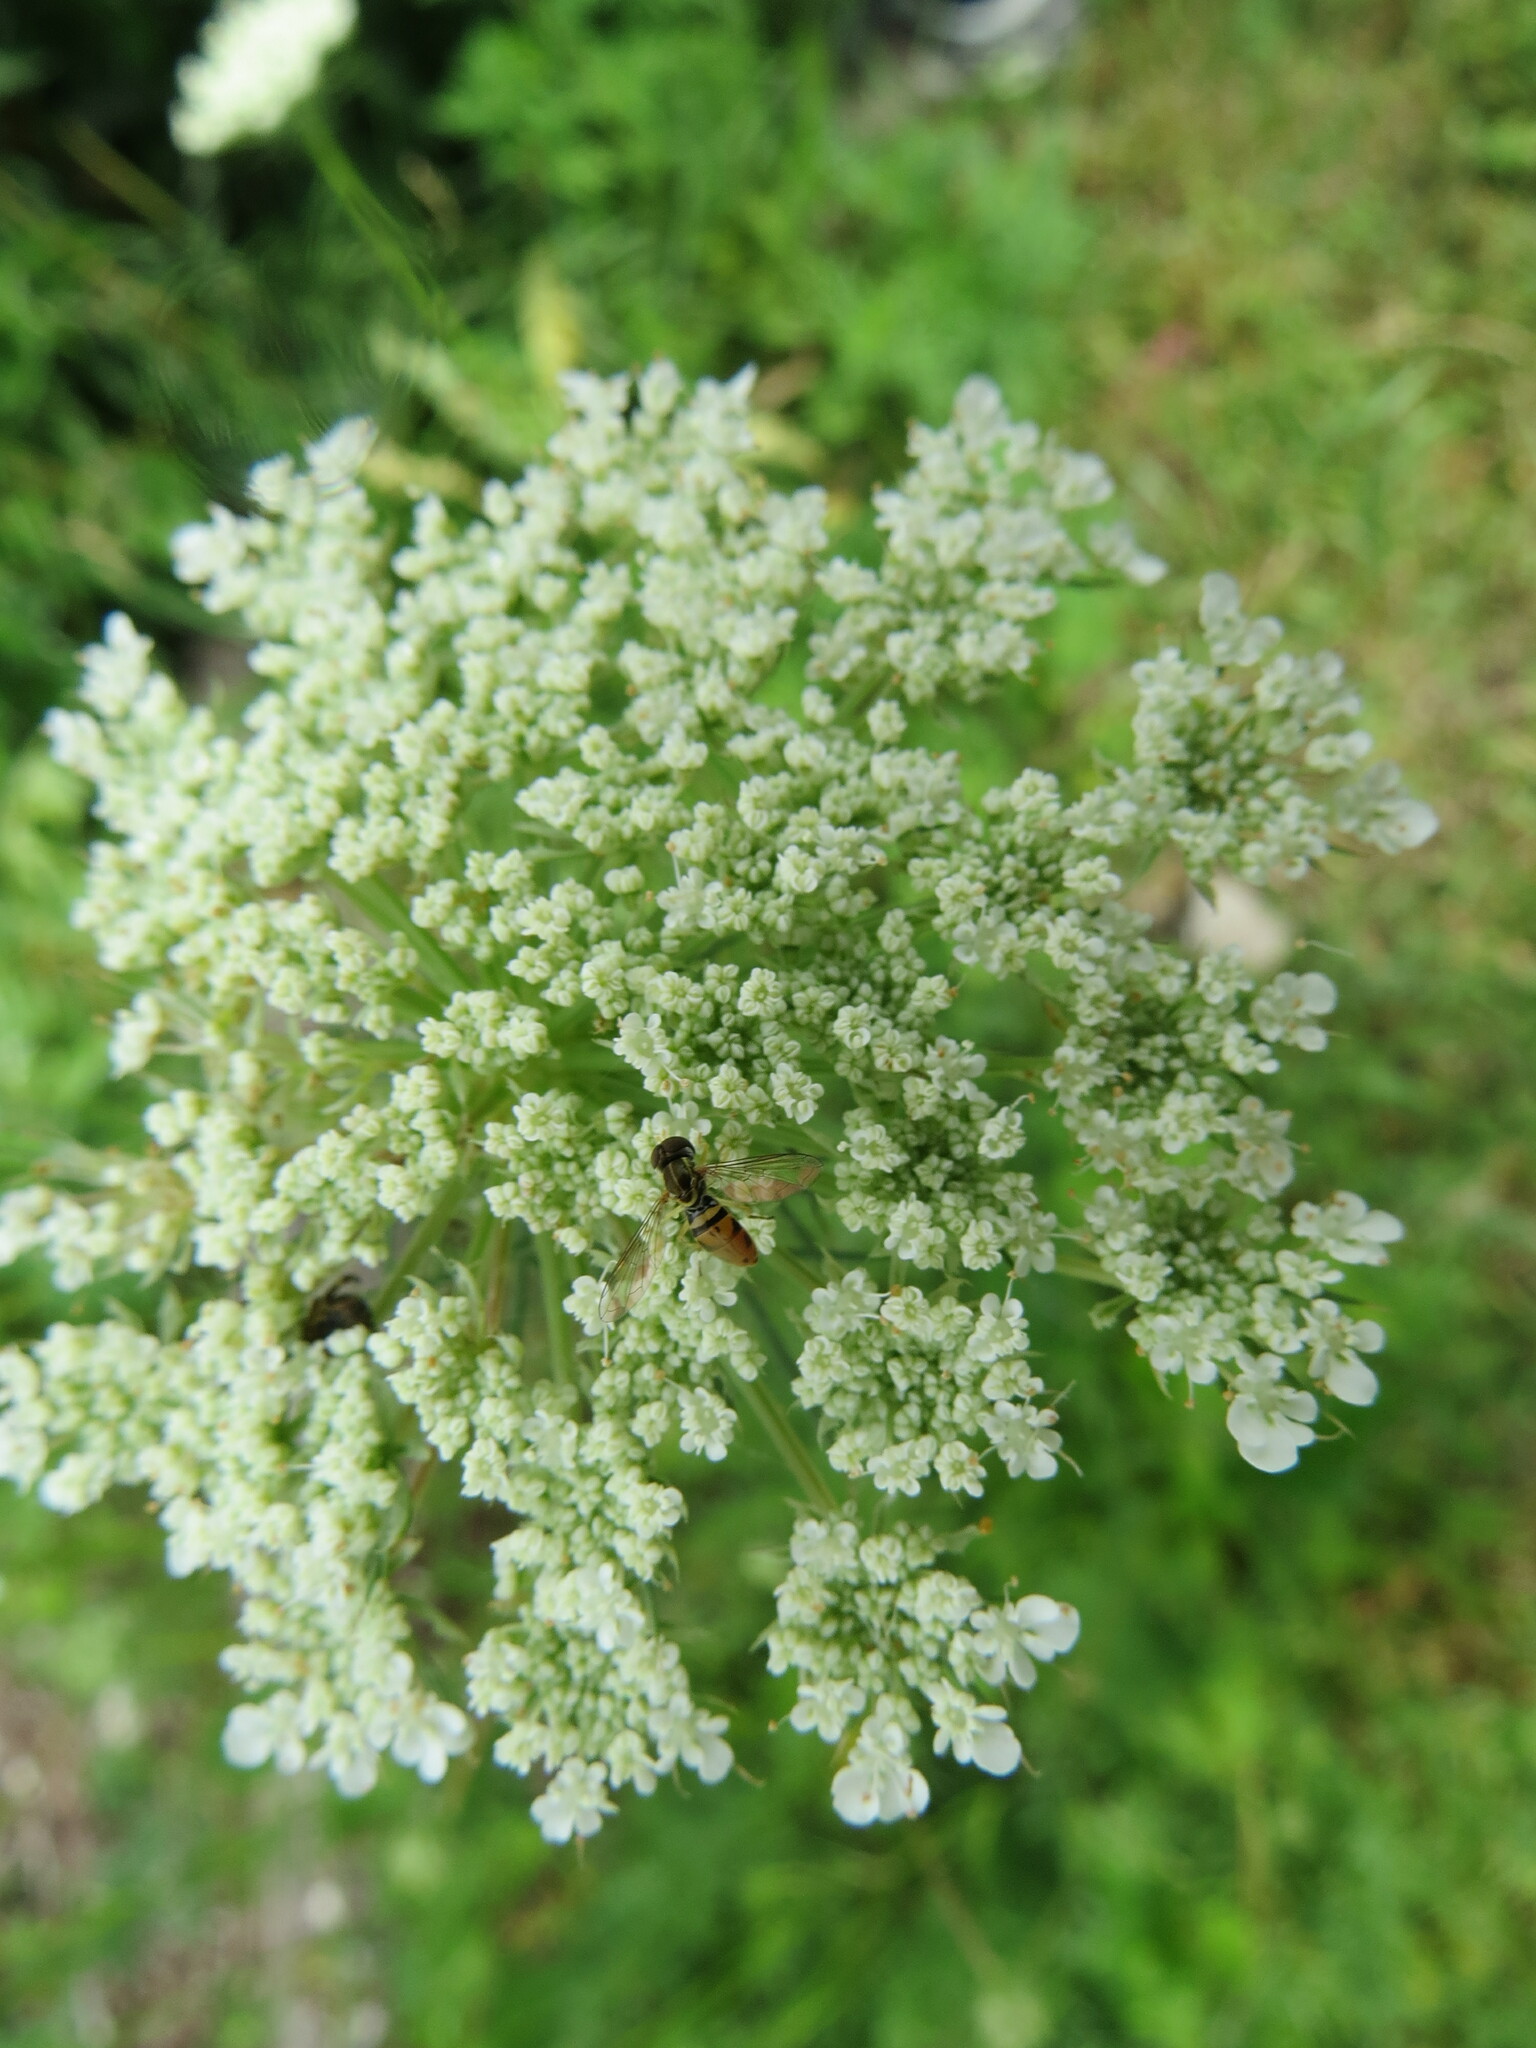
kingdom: Plantae
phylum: Tracheophyta
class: Magnoliopsida
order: Apiales
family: Apiaceae
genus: Daucus
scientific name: Daucus carota
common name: Wild carrot
